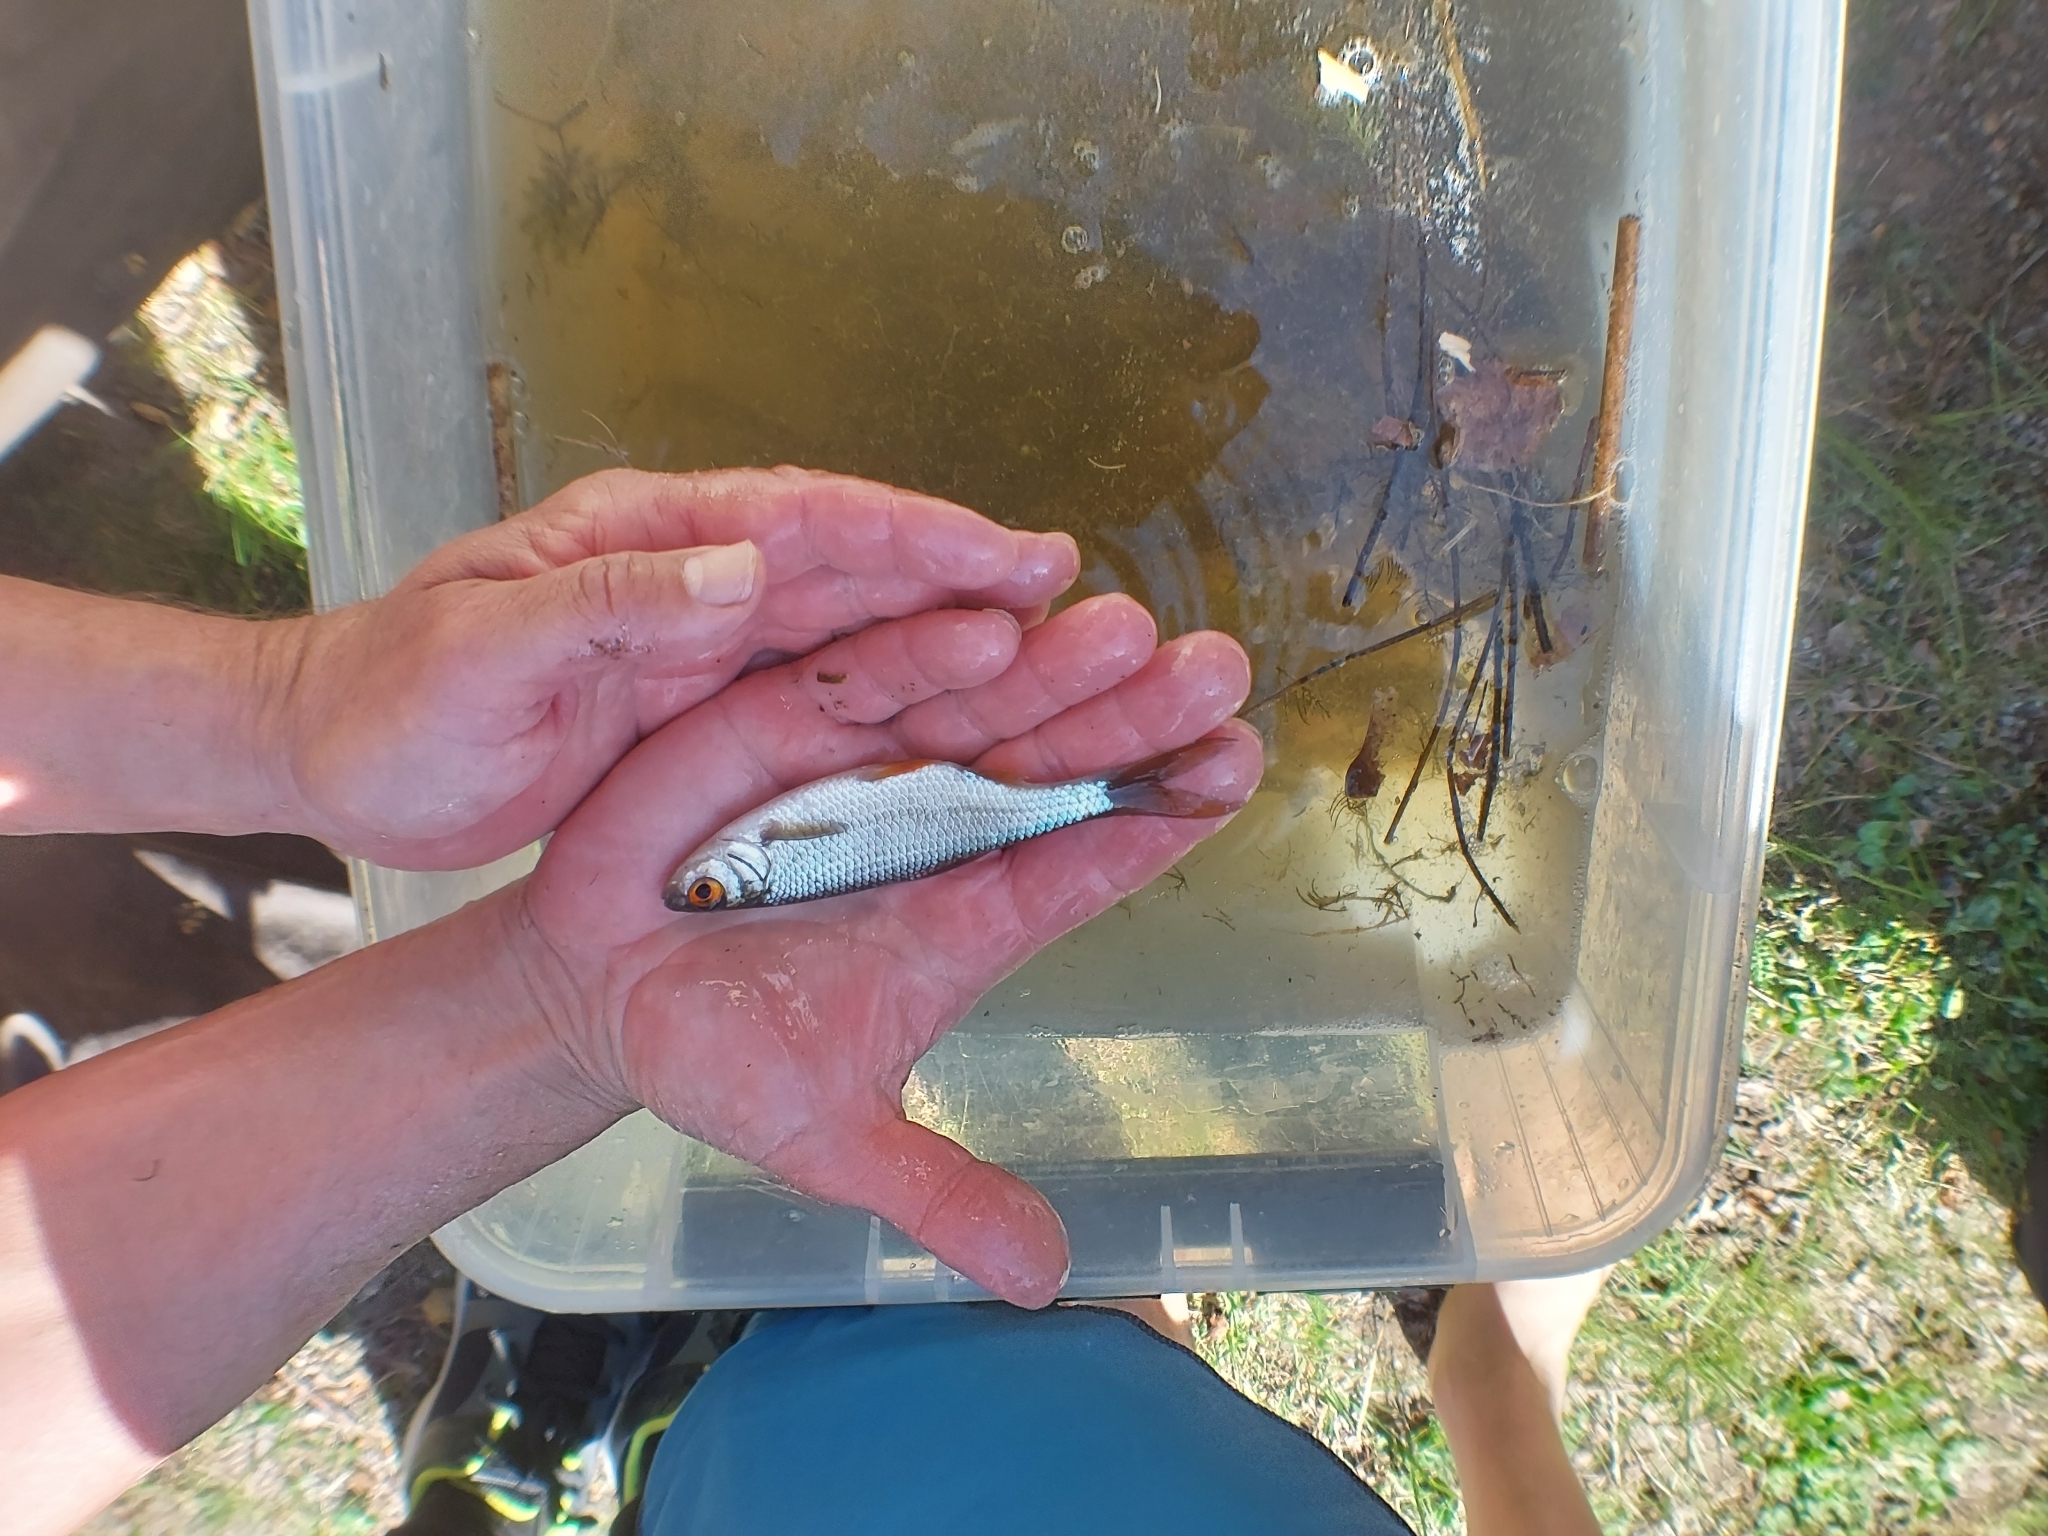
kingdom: Animalia
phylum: Chordata
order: Cypriniformes
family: Cyprinidae
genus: Rutilus
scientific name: Rutilus rutilus
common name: Roach
